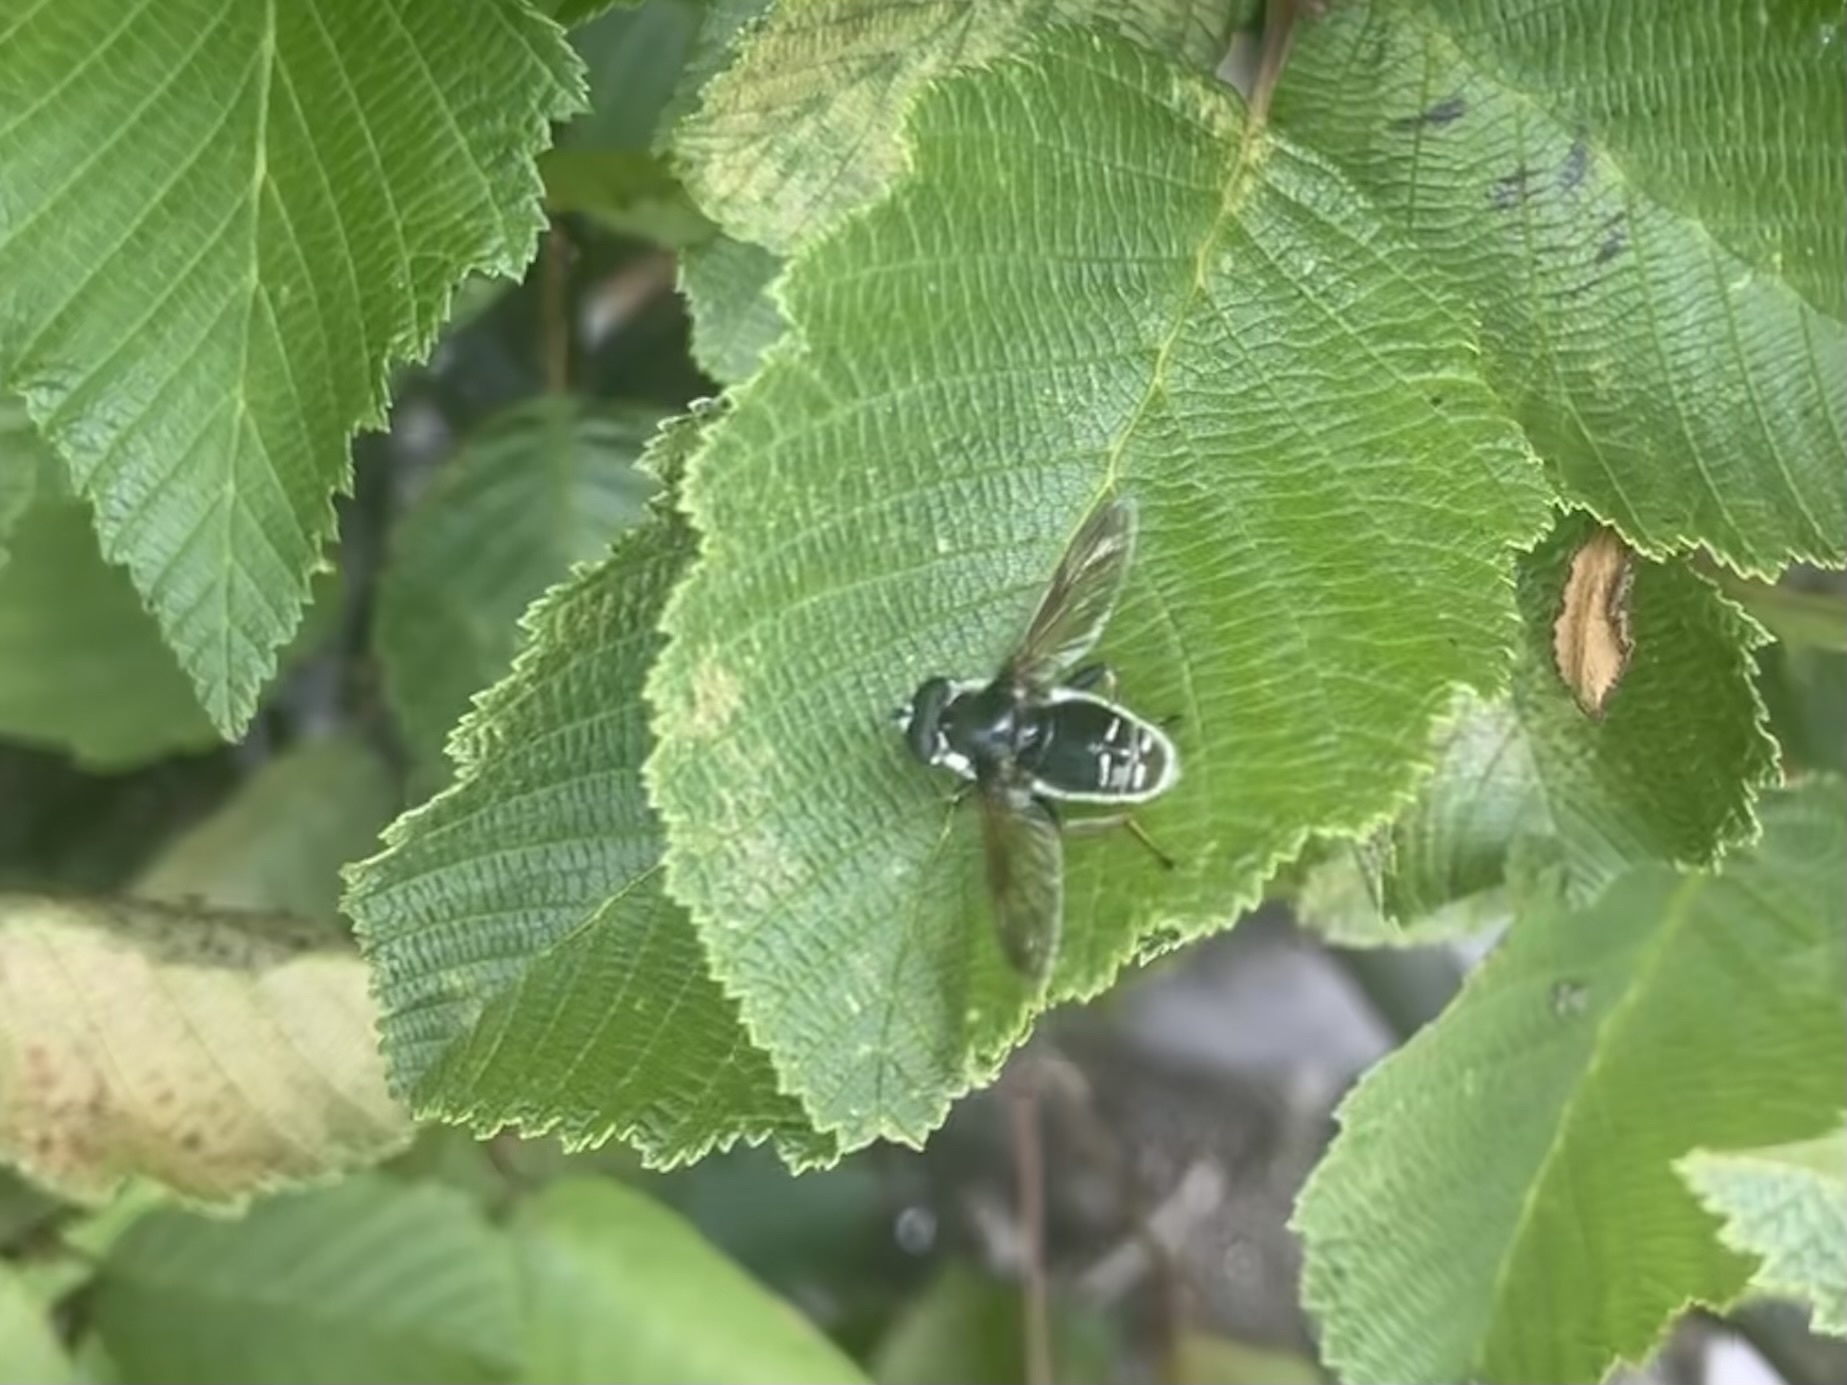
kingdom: Animalia
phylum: Arthropoda
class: Insecta
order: Diptera
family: Syrphidae
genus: Sericomyia
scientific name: Sericomyia militaris
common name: Narrow-banded pond fly
